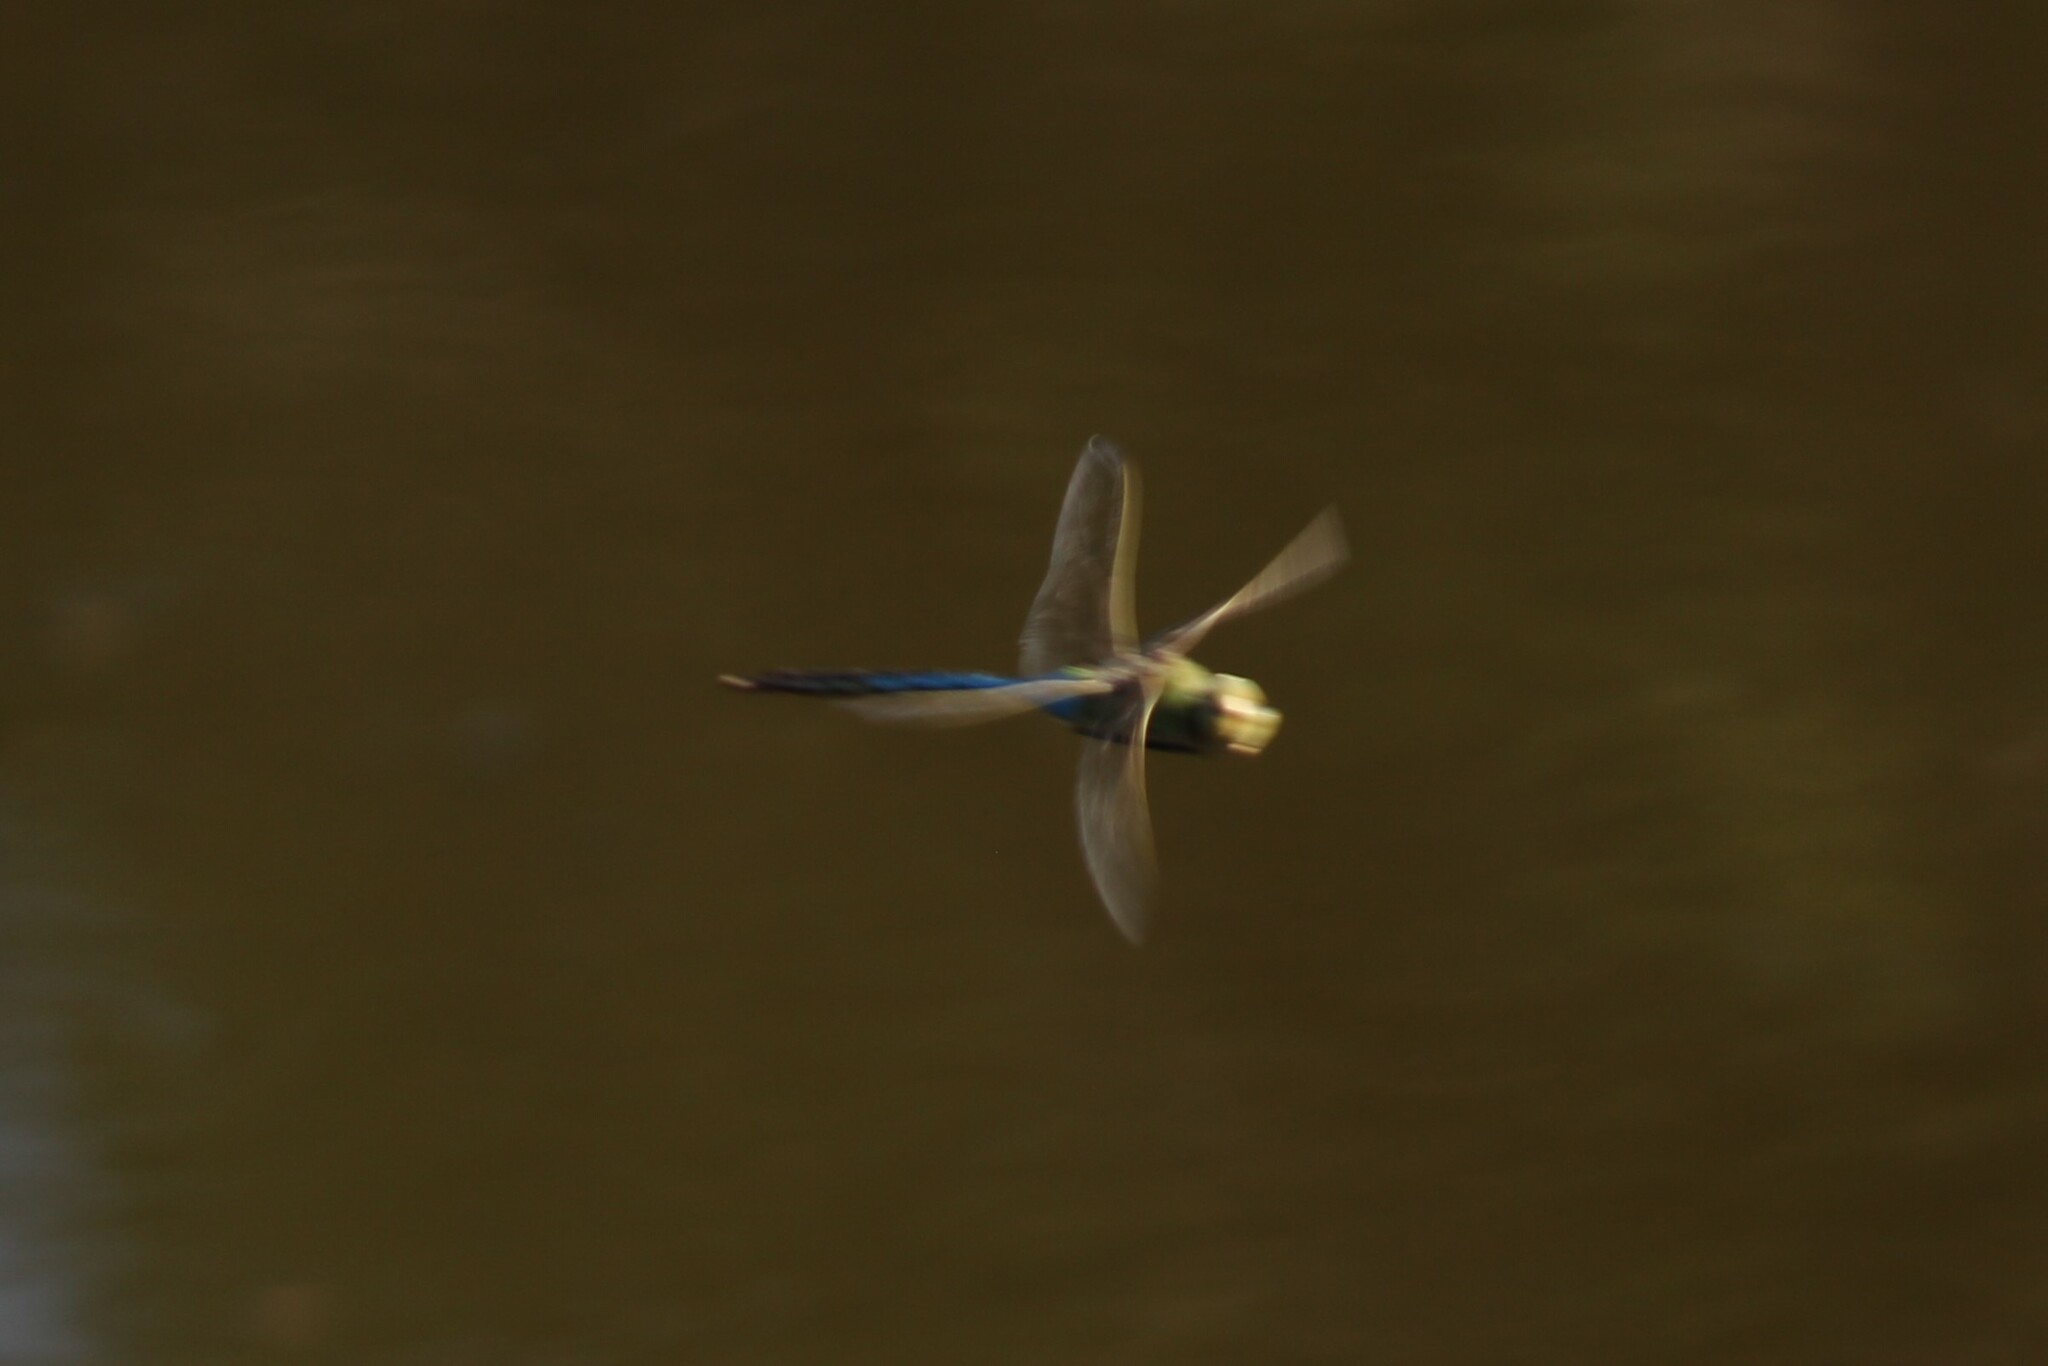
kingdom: Animalia
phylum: Arthropoda
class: Insecta
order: Odonata
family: Aeshnidae
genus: Anax
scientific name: Anax junius
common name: Common green darner
